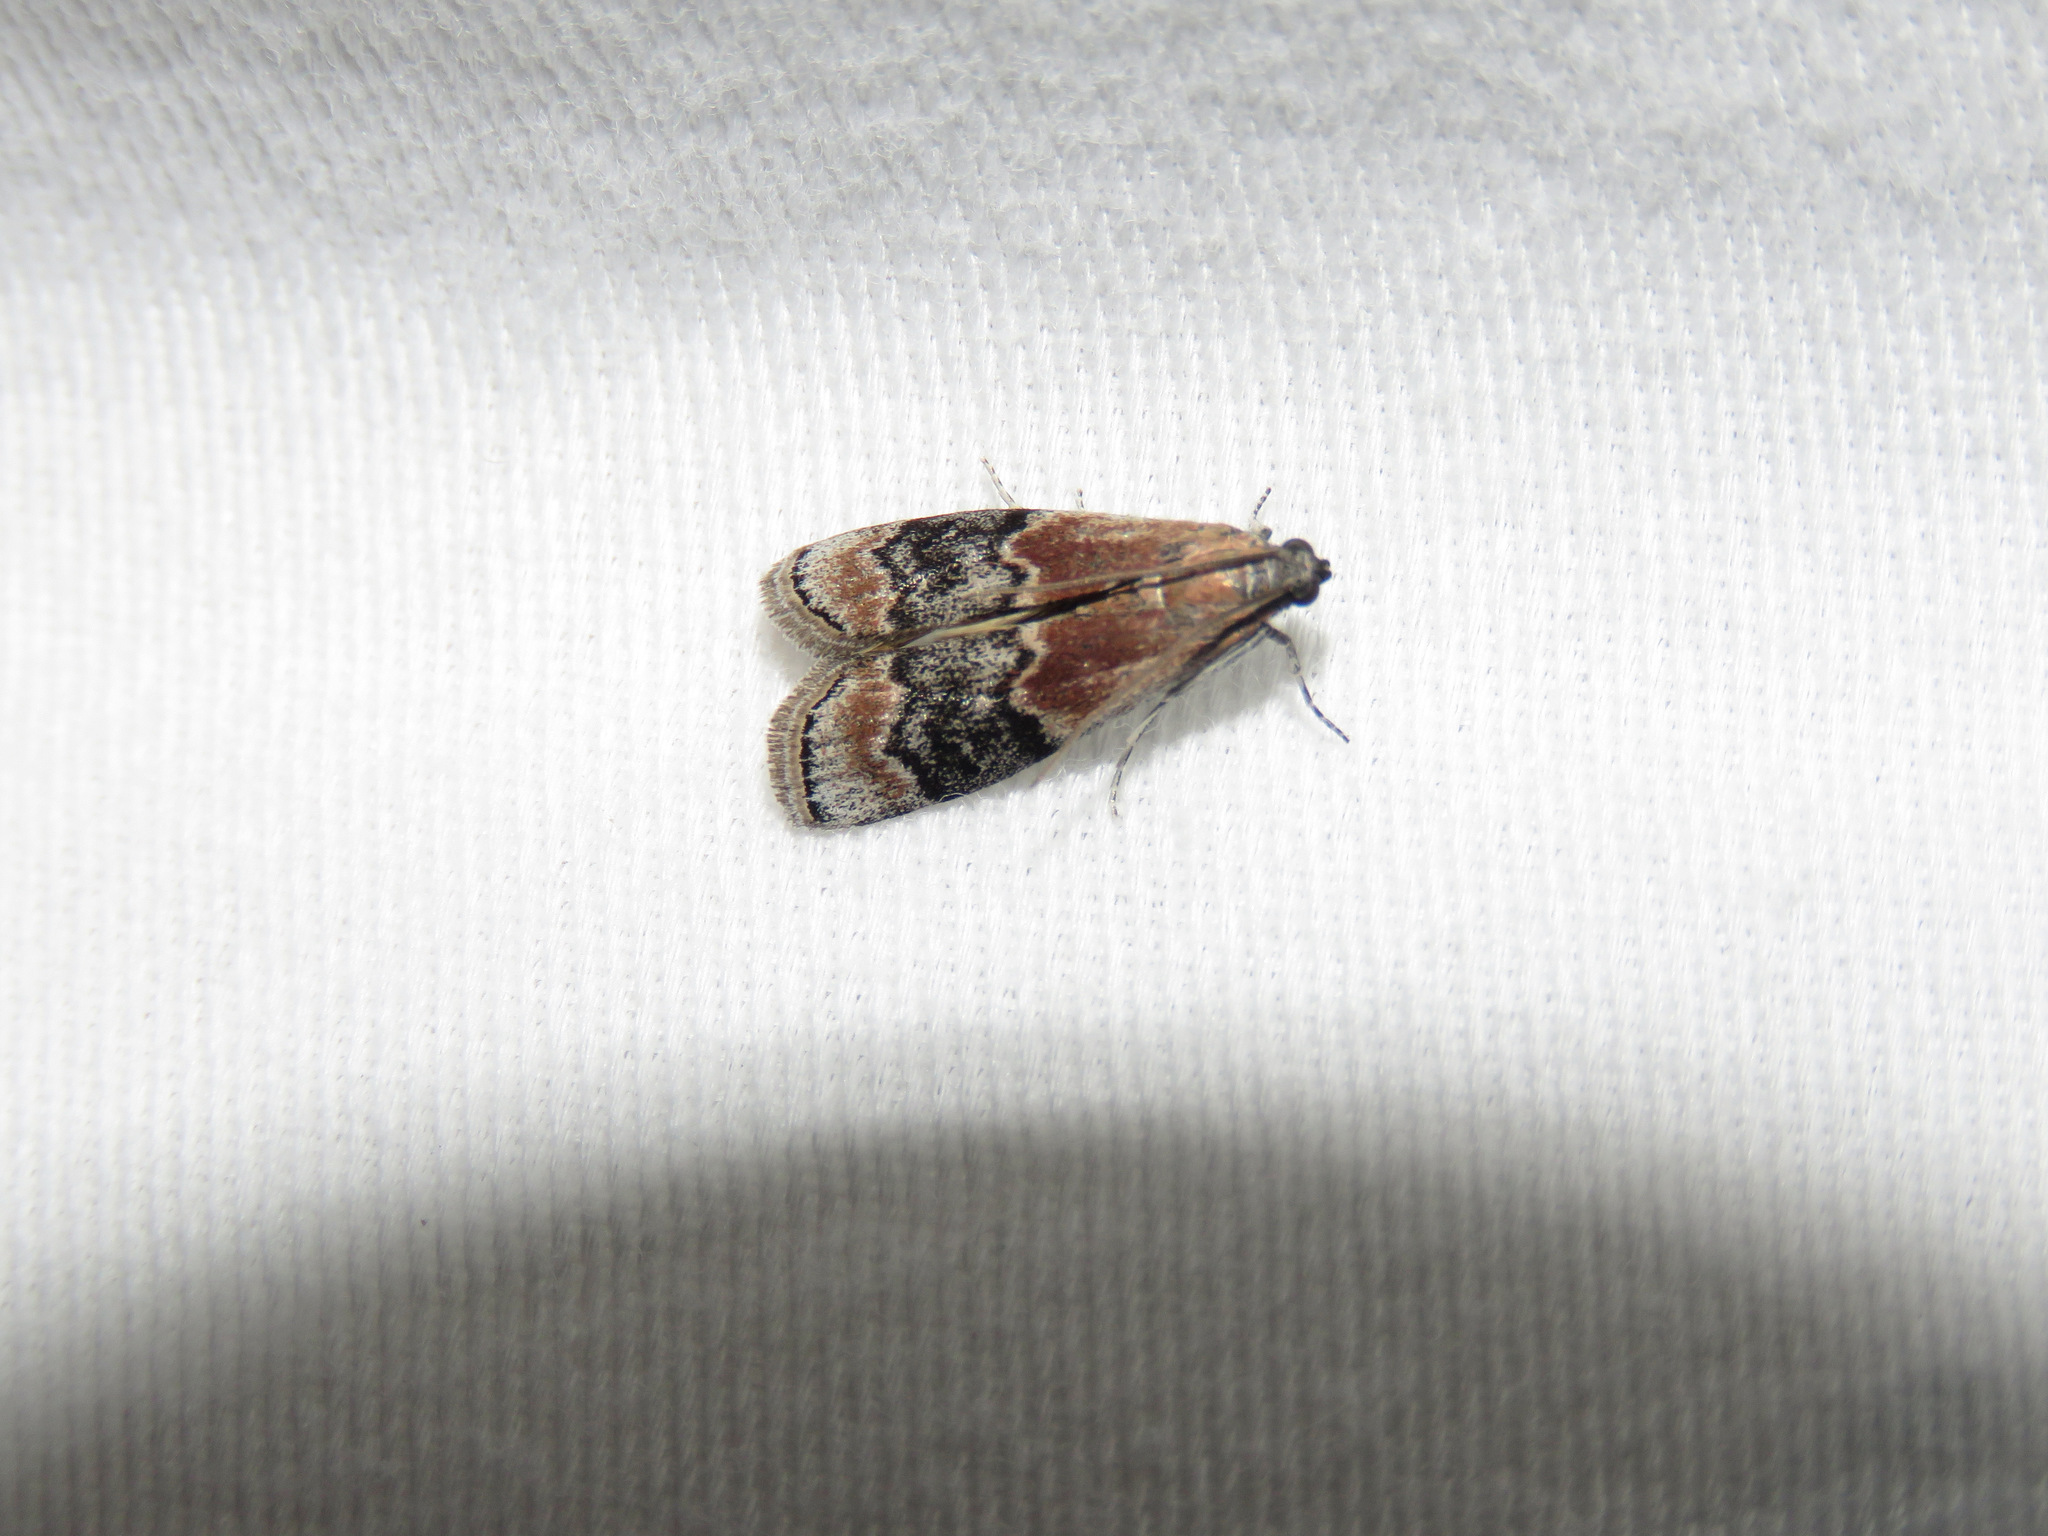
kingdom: Animalia
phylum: Arthropoda
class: Insecta
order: Lepidoptera
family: Pyralidae
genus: Euzophera
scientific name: Euzophera semifuneralis
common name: American plum borer moth
